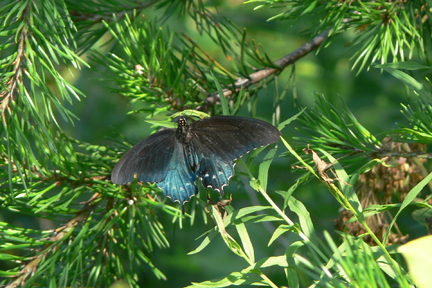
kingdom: Animalia
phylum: Arthropoda
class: Insecta
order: Lepidoptera
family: Papilionidae
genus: Battus
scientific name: Battus philenor
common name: Pipevine swallowtail
